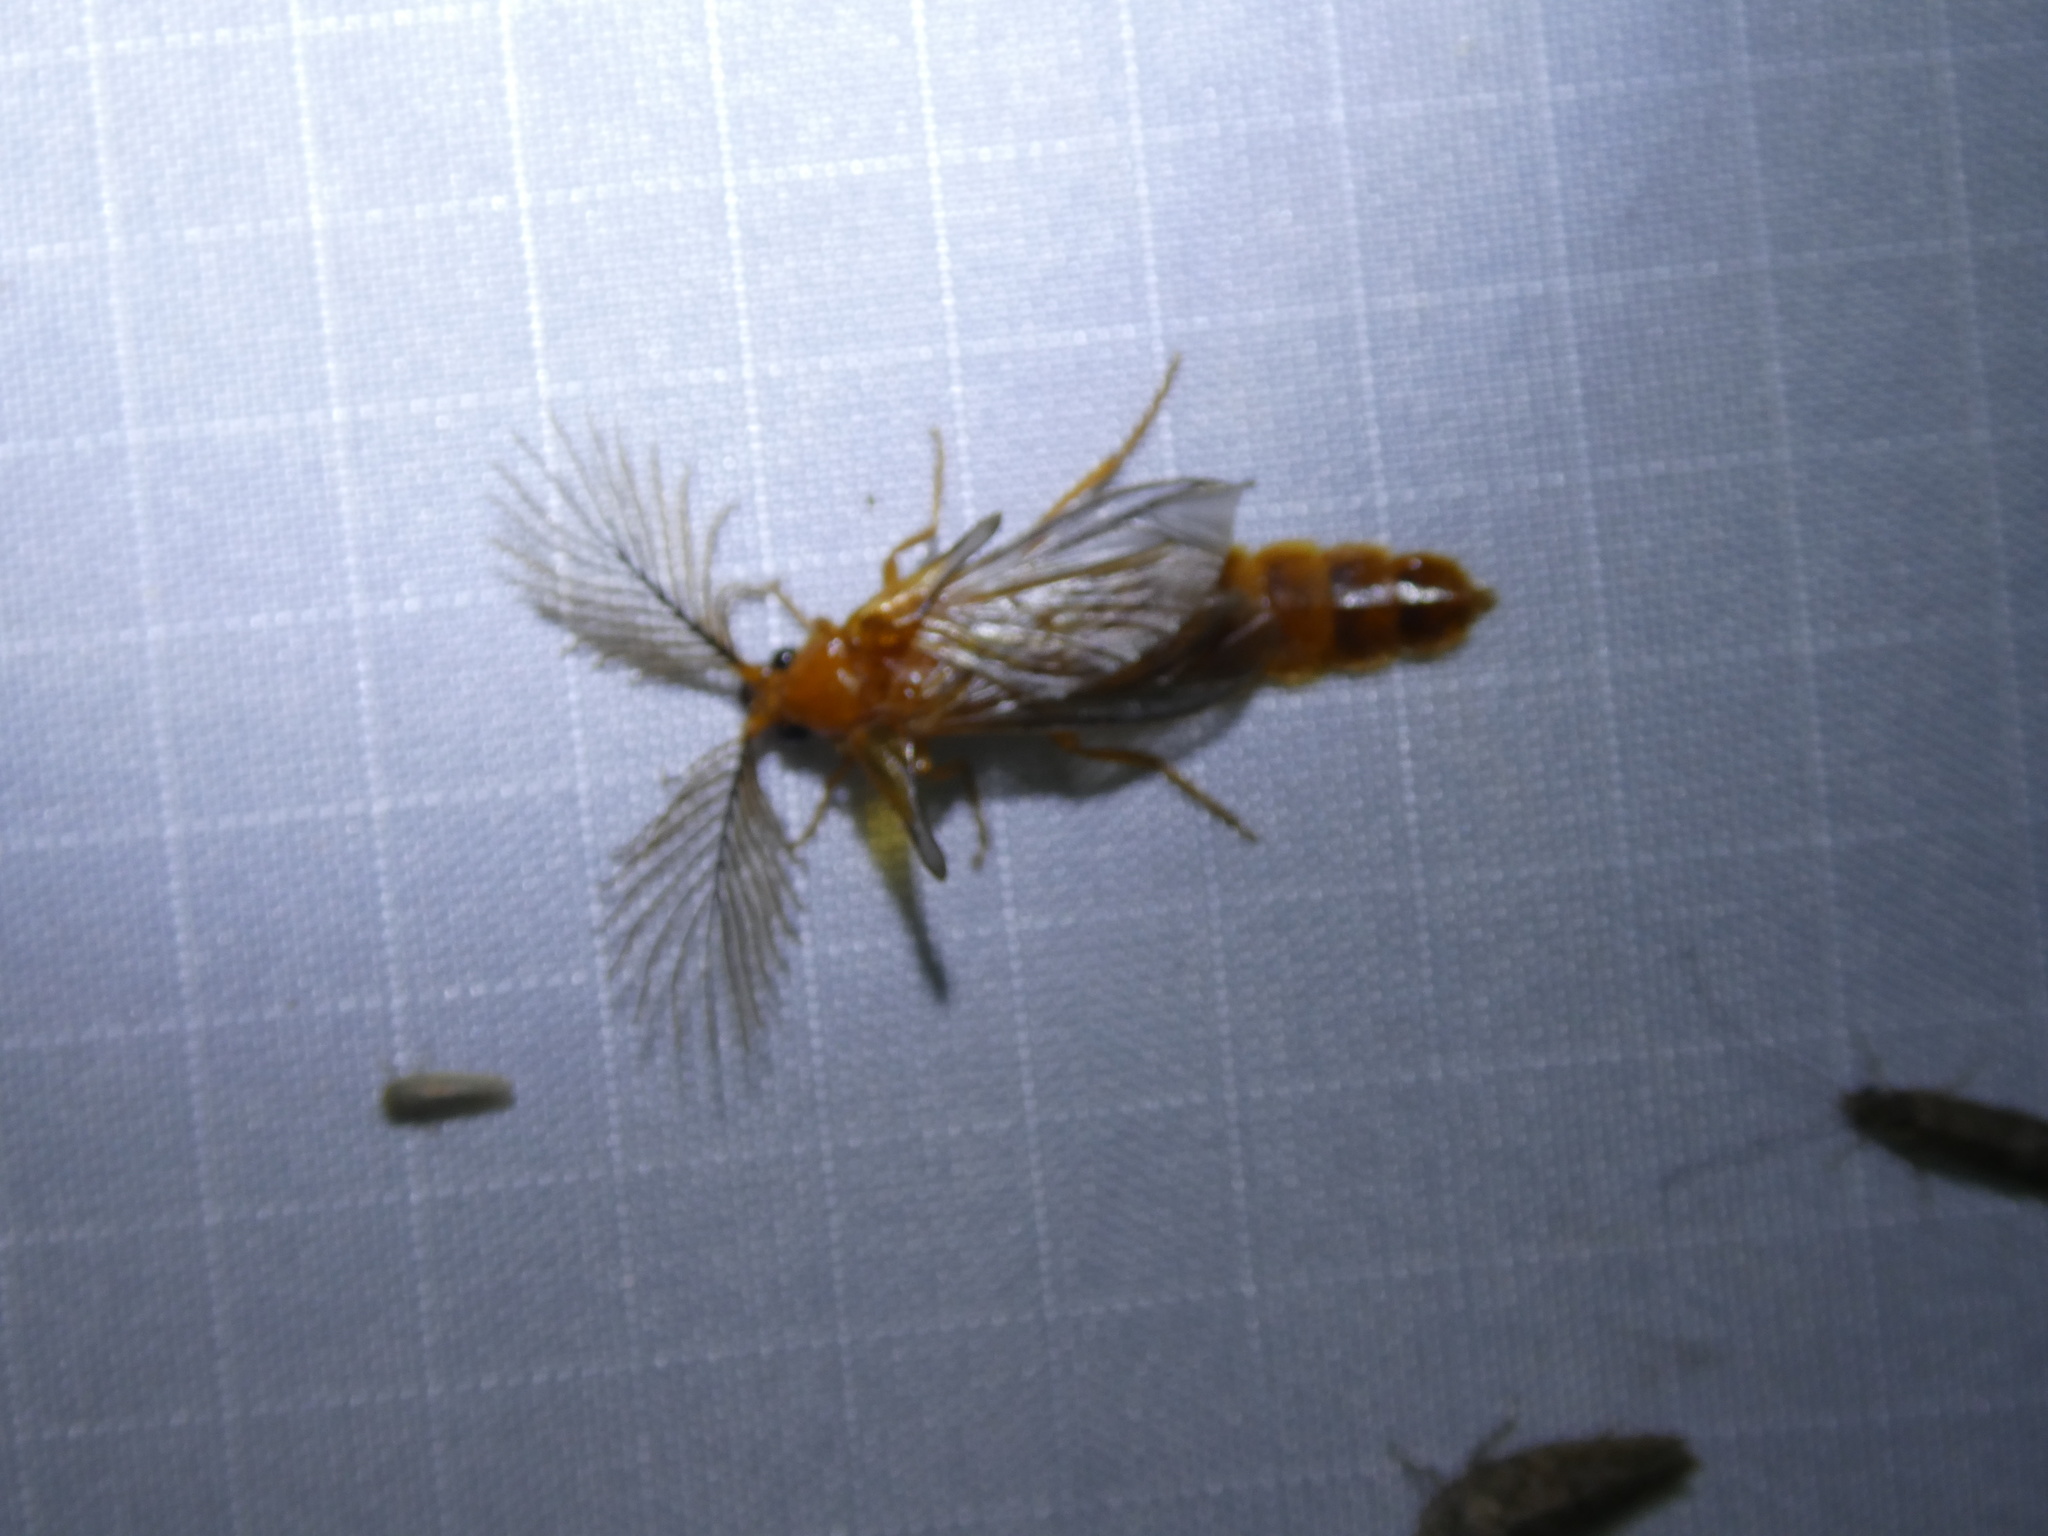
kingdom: Animalia
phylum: Arthropoda
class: Insecta
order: Coleoptera
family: Phengodidae
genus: Phengodes
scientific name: Phengodes
